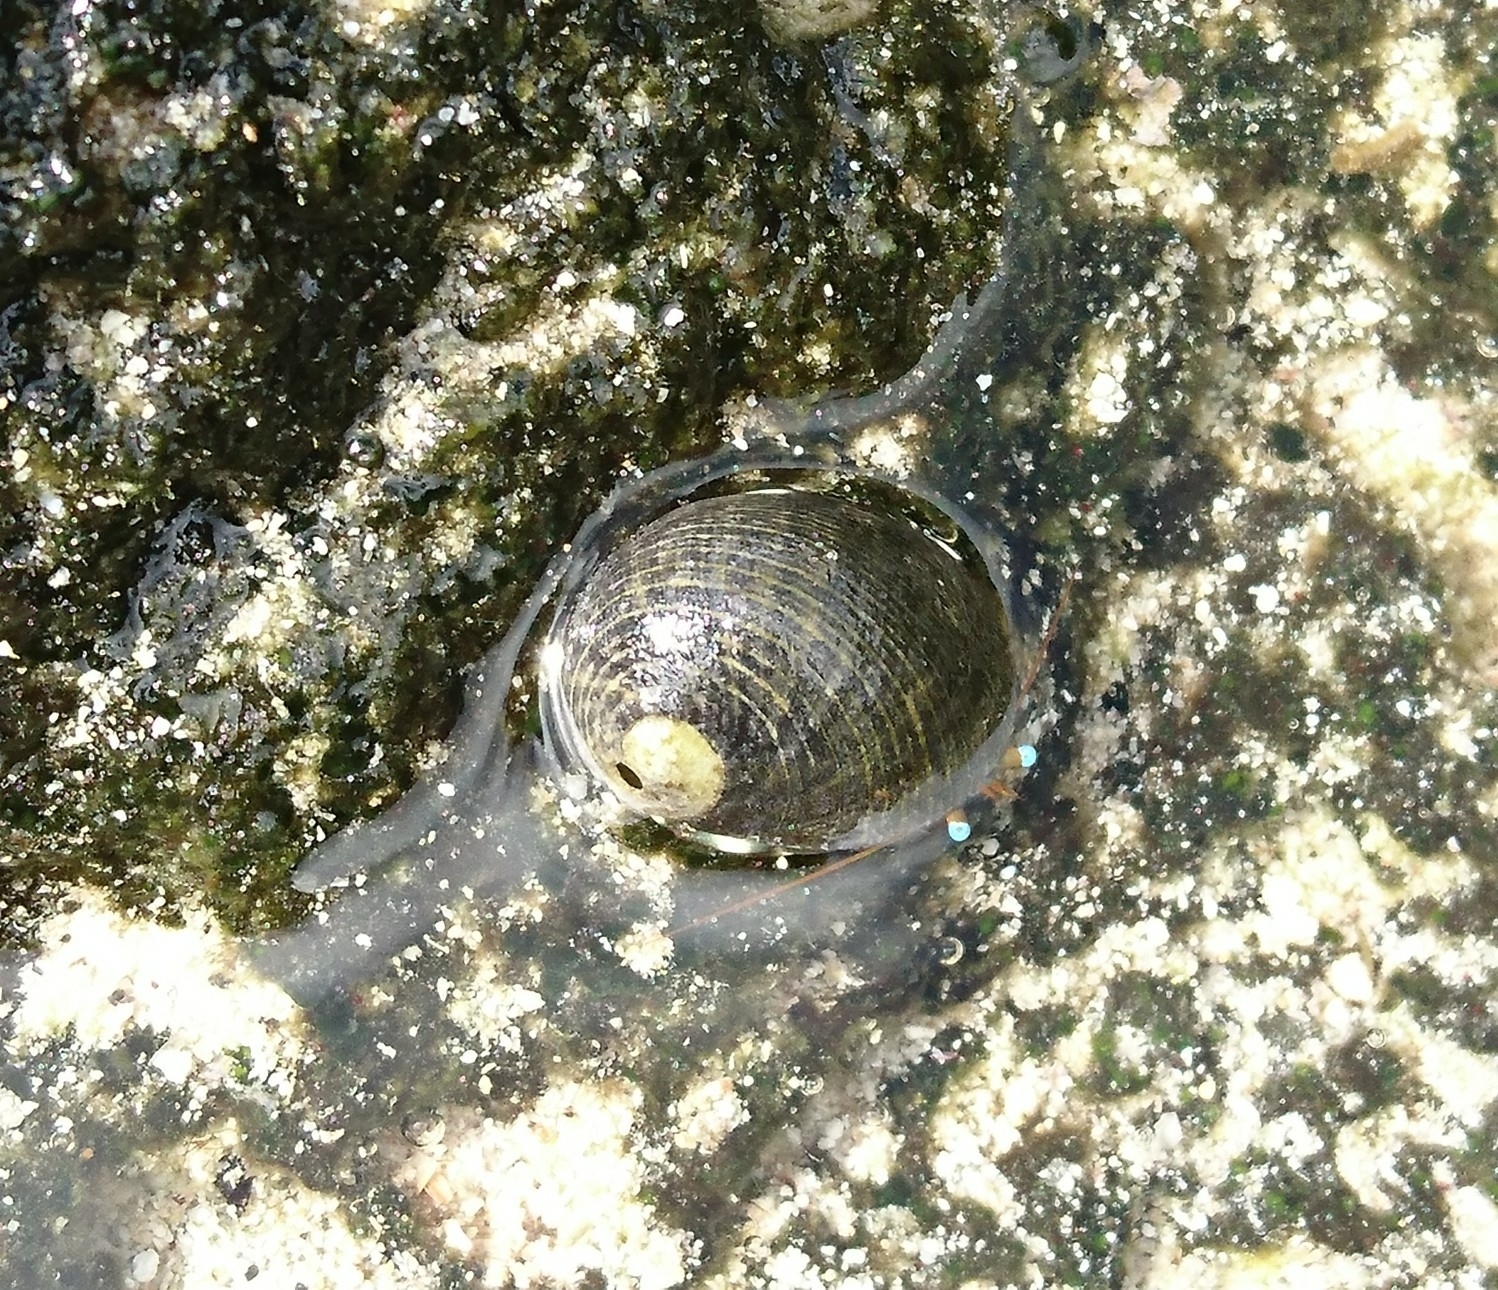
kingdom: Animalia
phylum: Mollusca
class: Gastropoda
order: Cycloneritida
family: Neritidae
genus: Nerita
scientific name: Nerita picea
